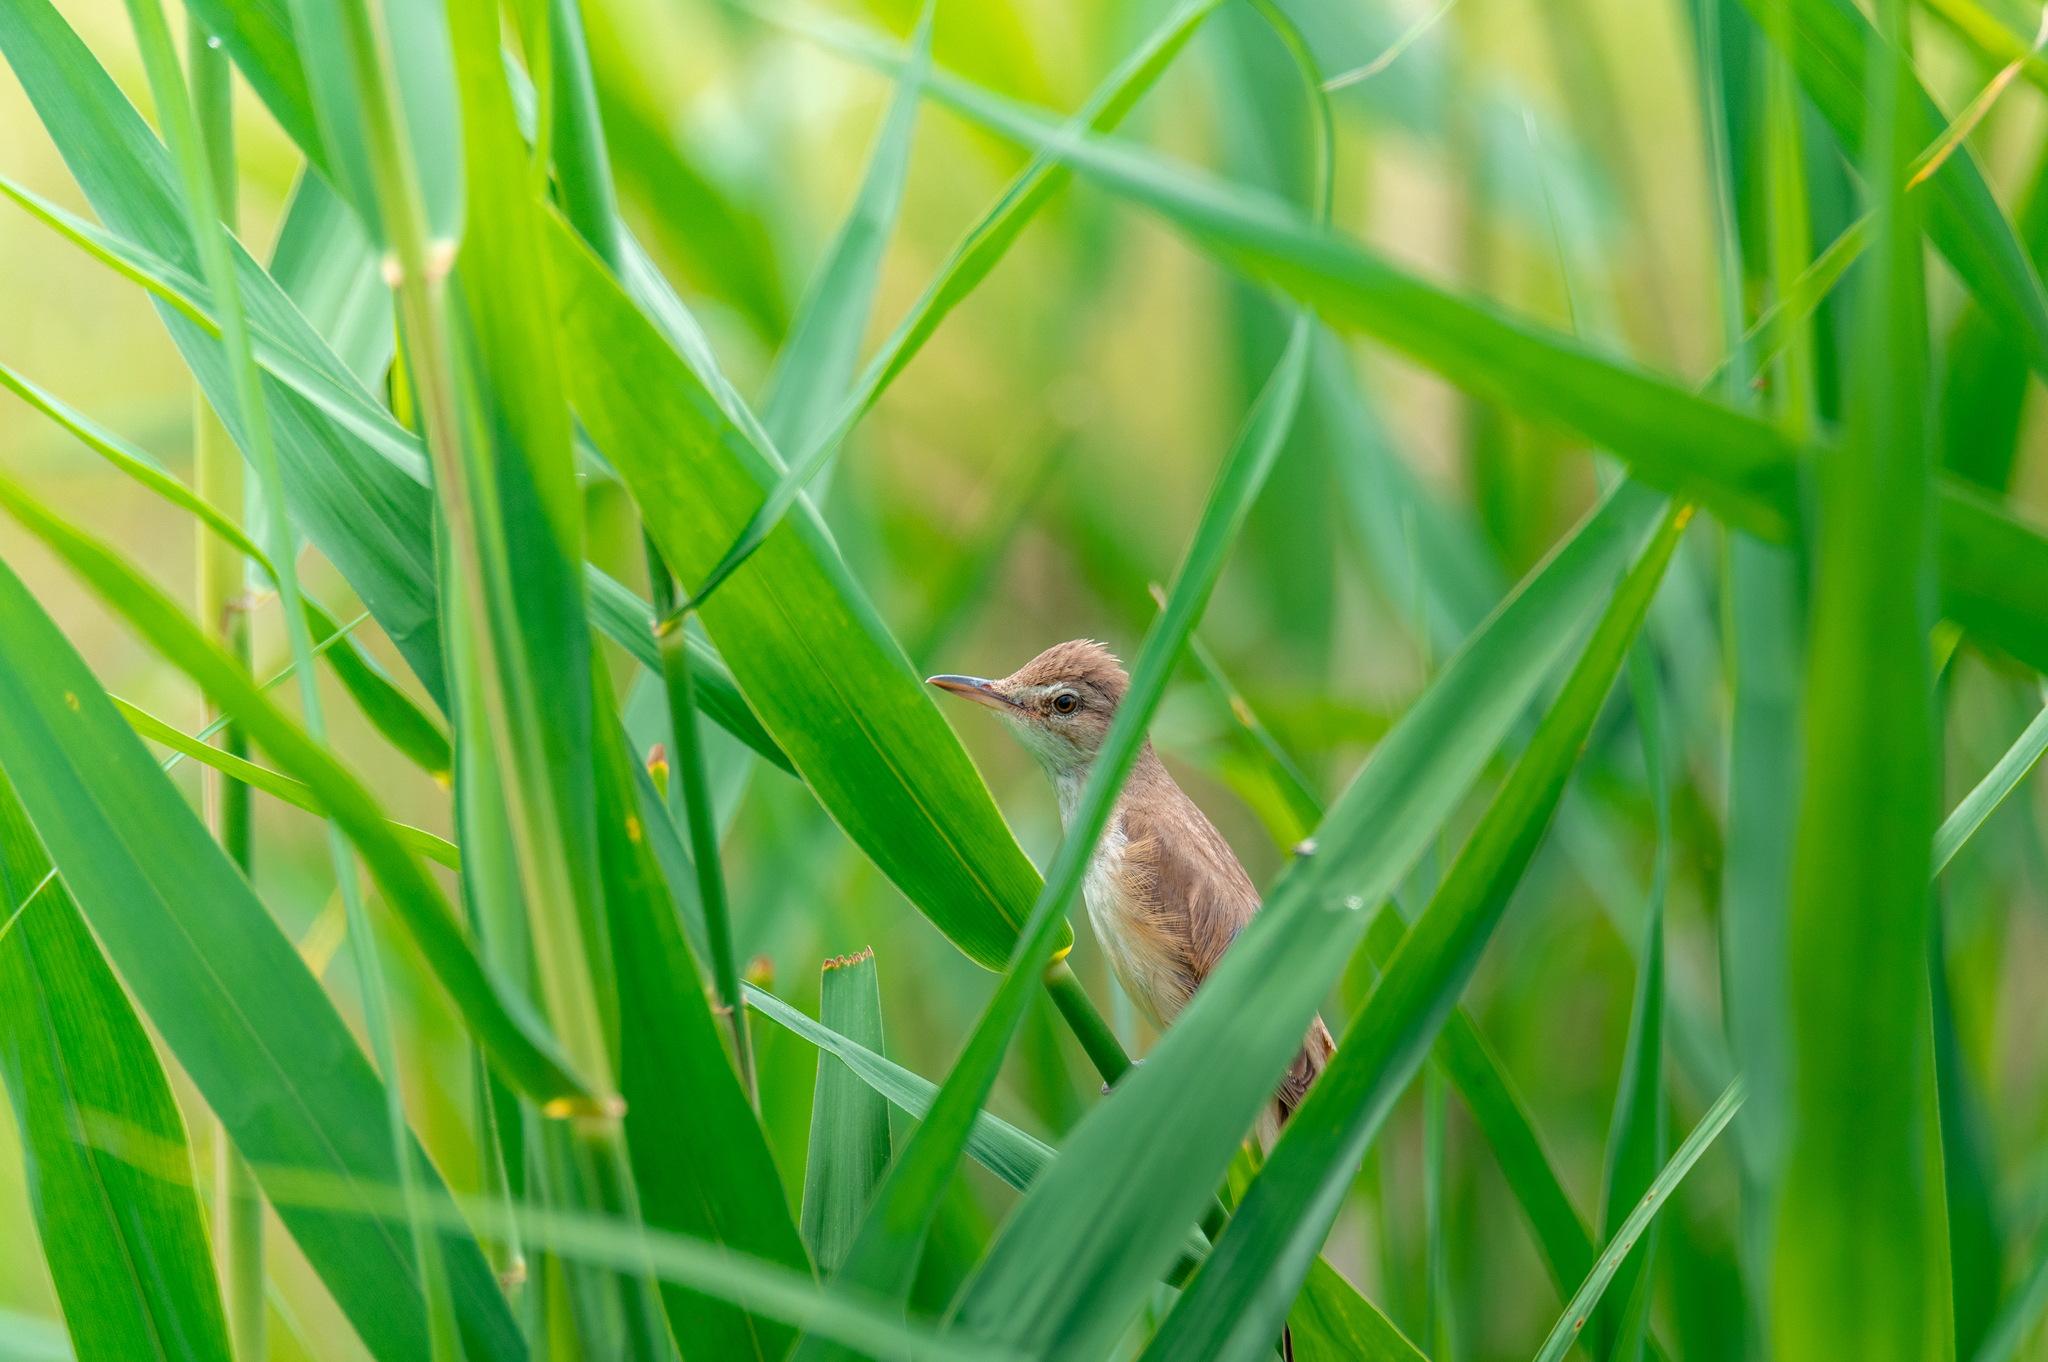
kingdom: Animalia
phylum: Chordata
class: Aves
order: Passeriformes
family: Acrocephalidae
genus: Acrocephalus
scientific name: Acrocephalus arundinaceus
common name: Great reed warbler
